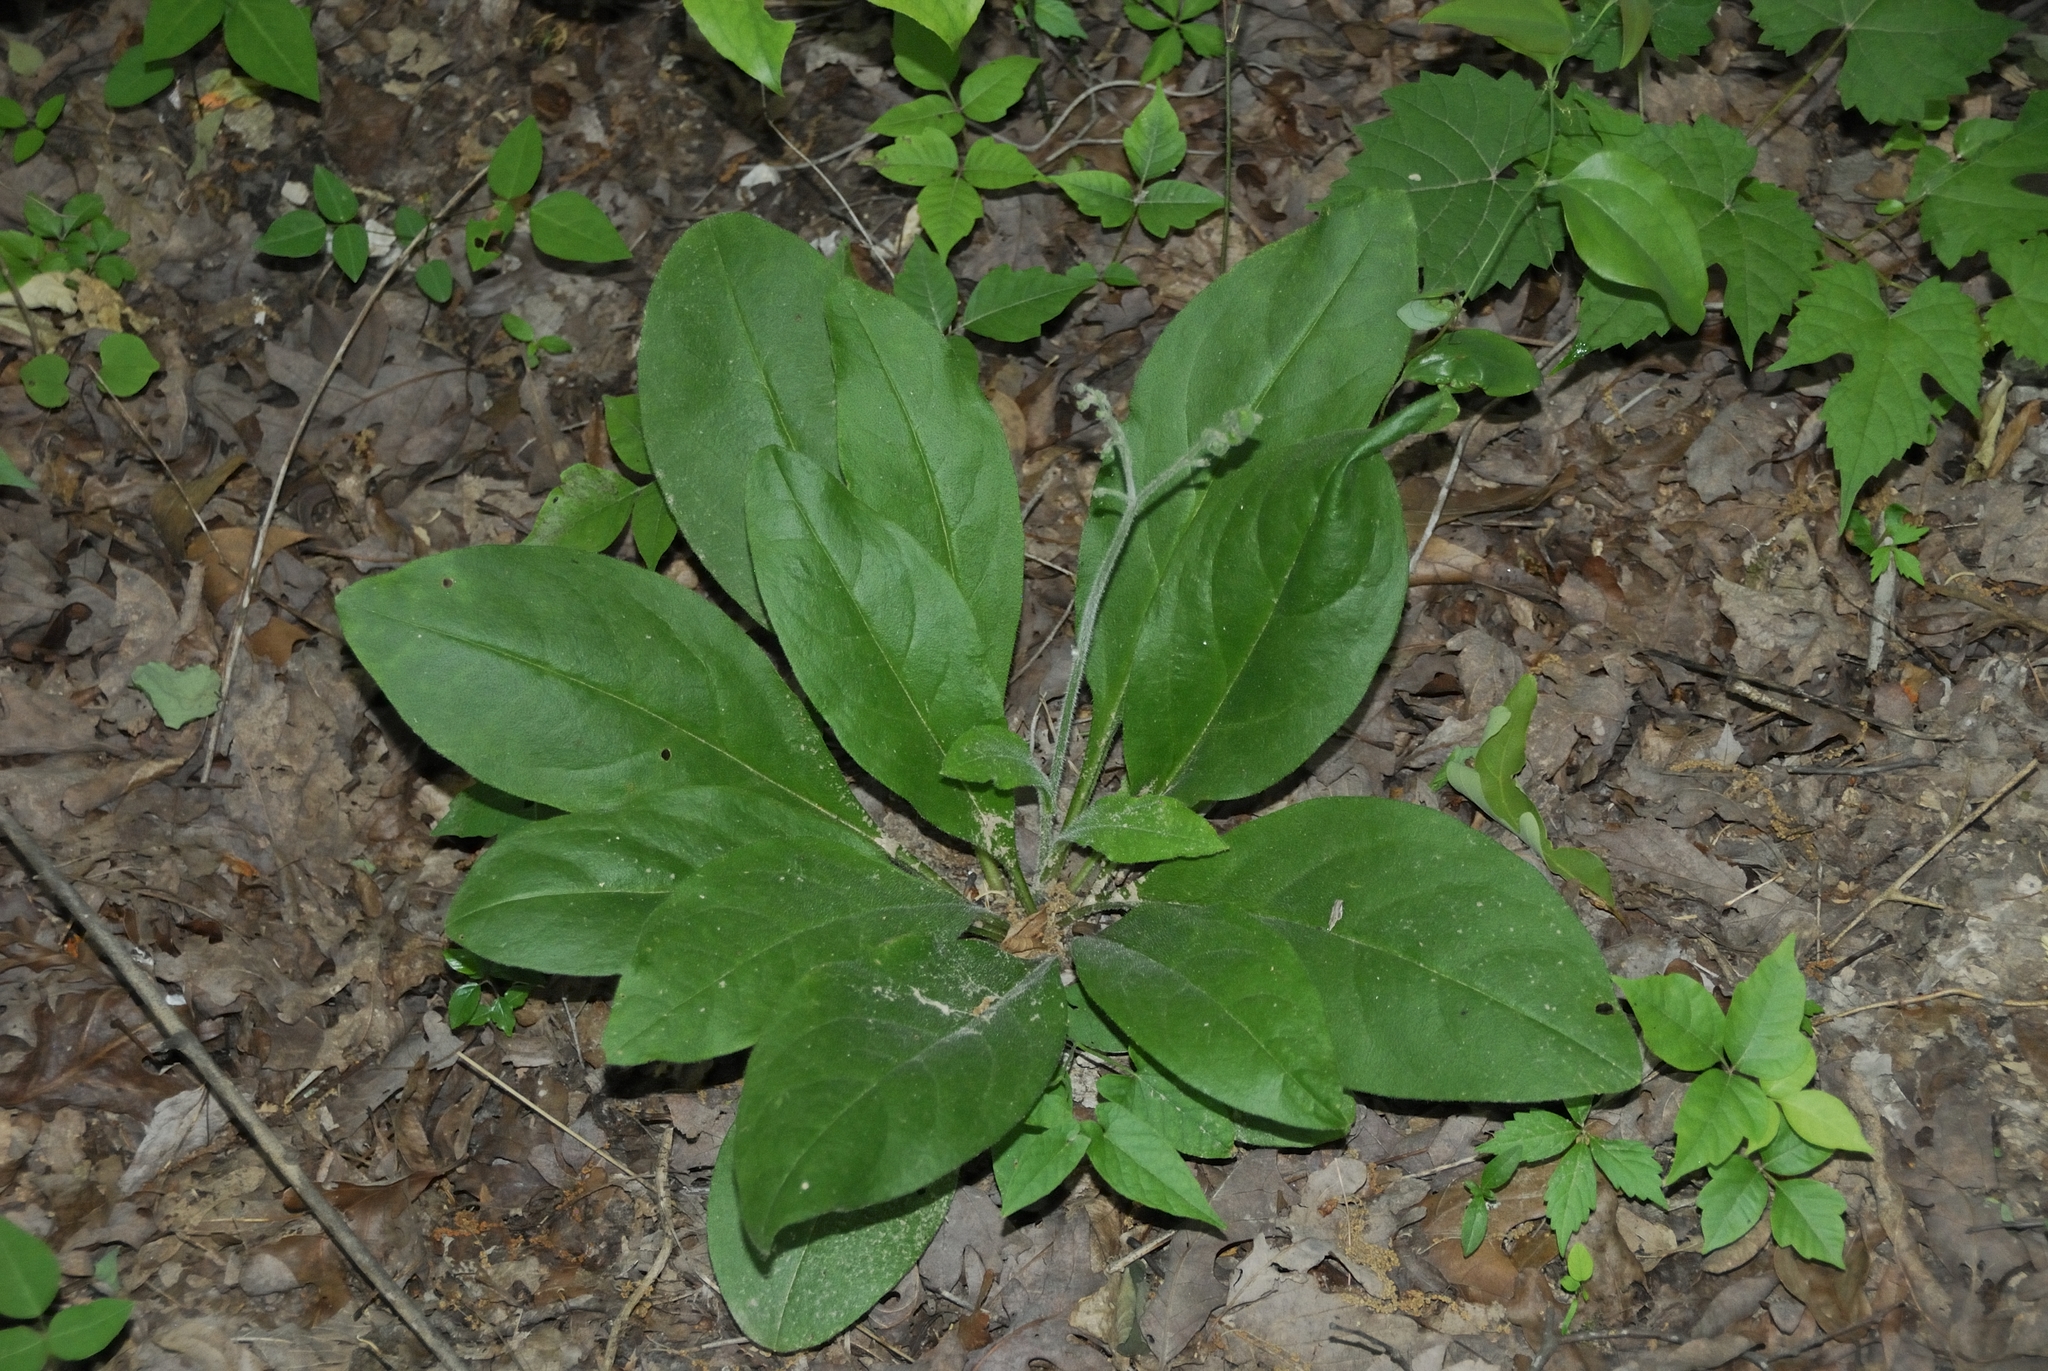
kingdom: Plantae
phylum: Tracheophyta
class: Magnoliopsida
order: Boraginales
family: Boraginaceae
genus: Andersonglossum
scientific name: Andersonglossum virginianum
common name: Wild comfrey
